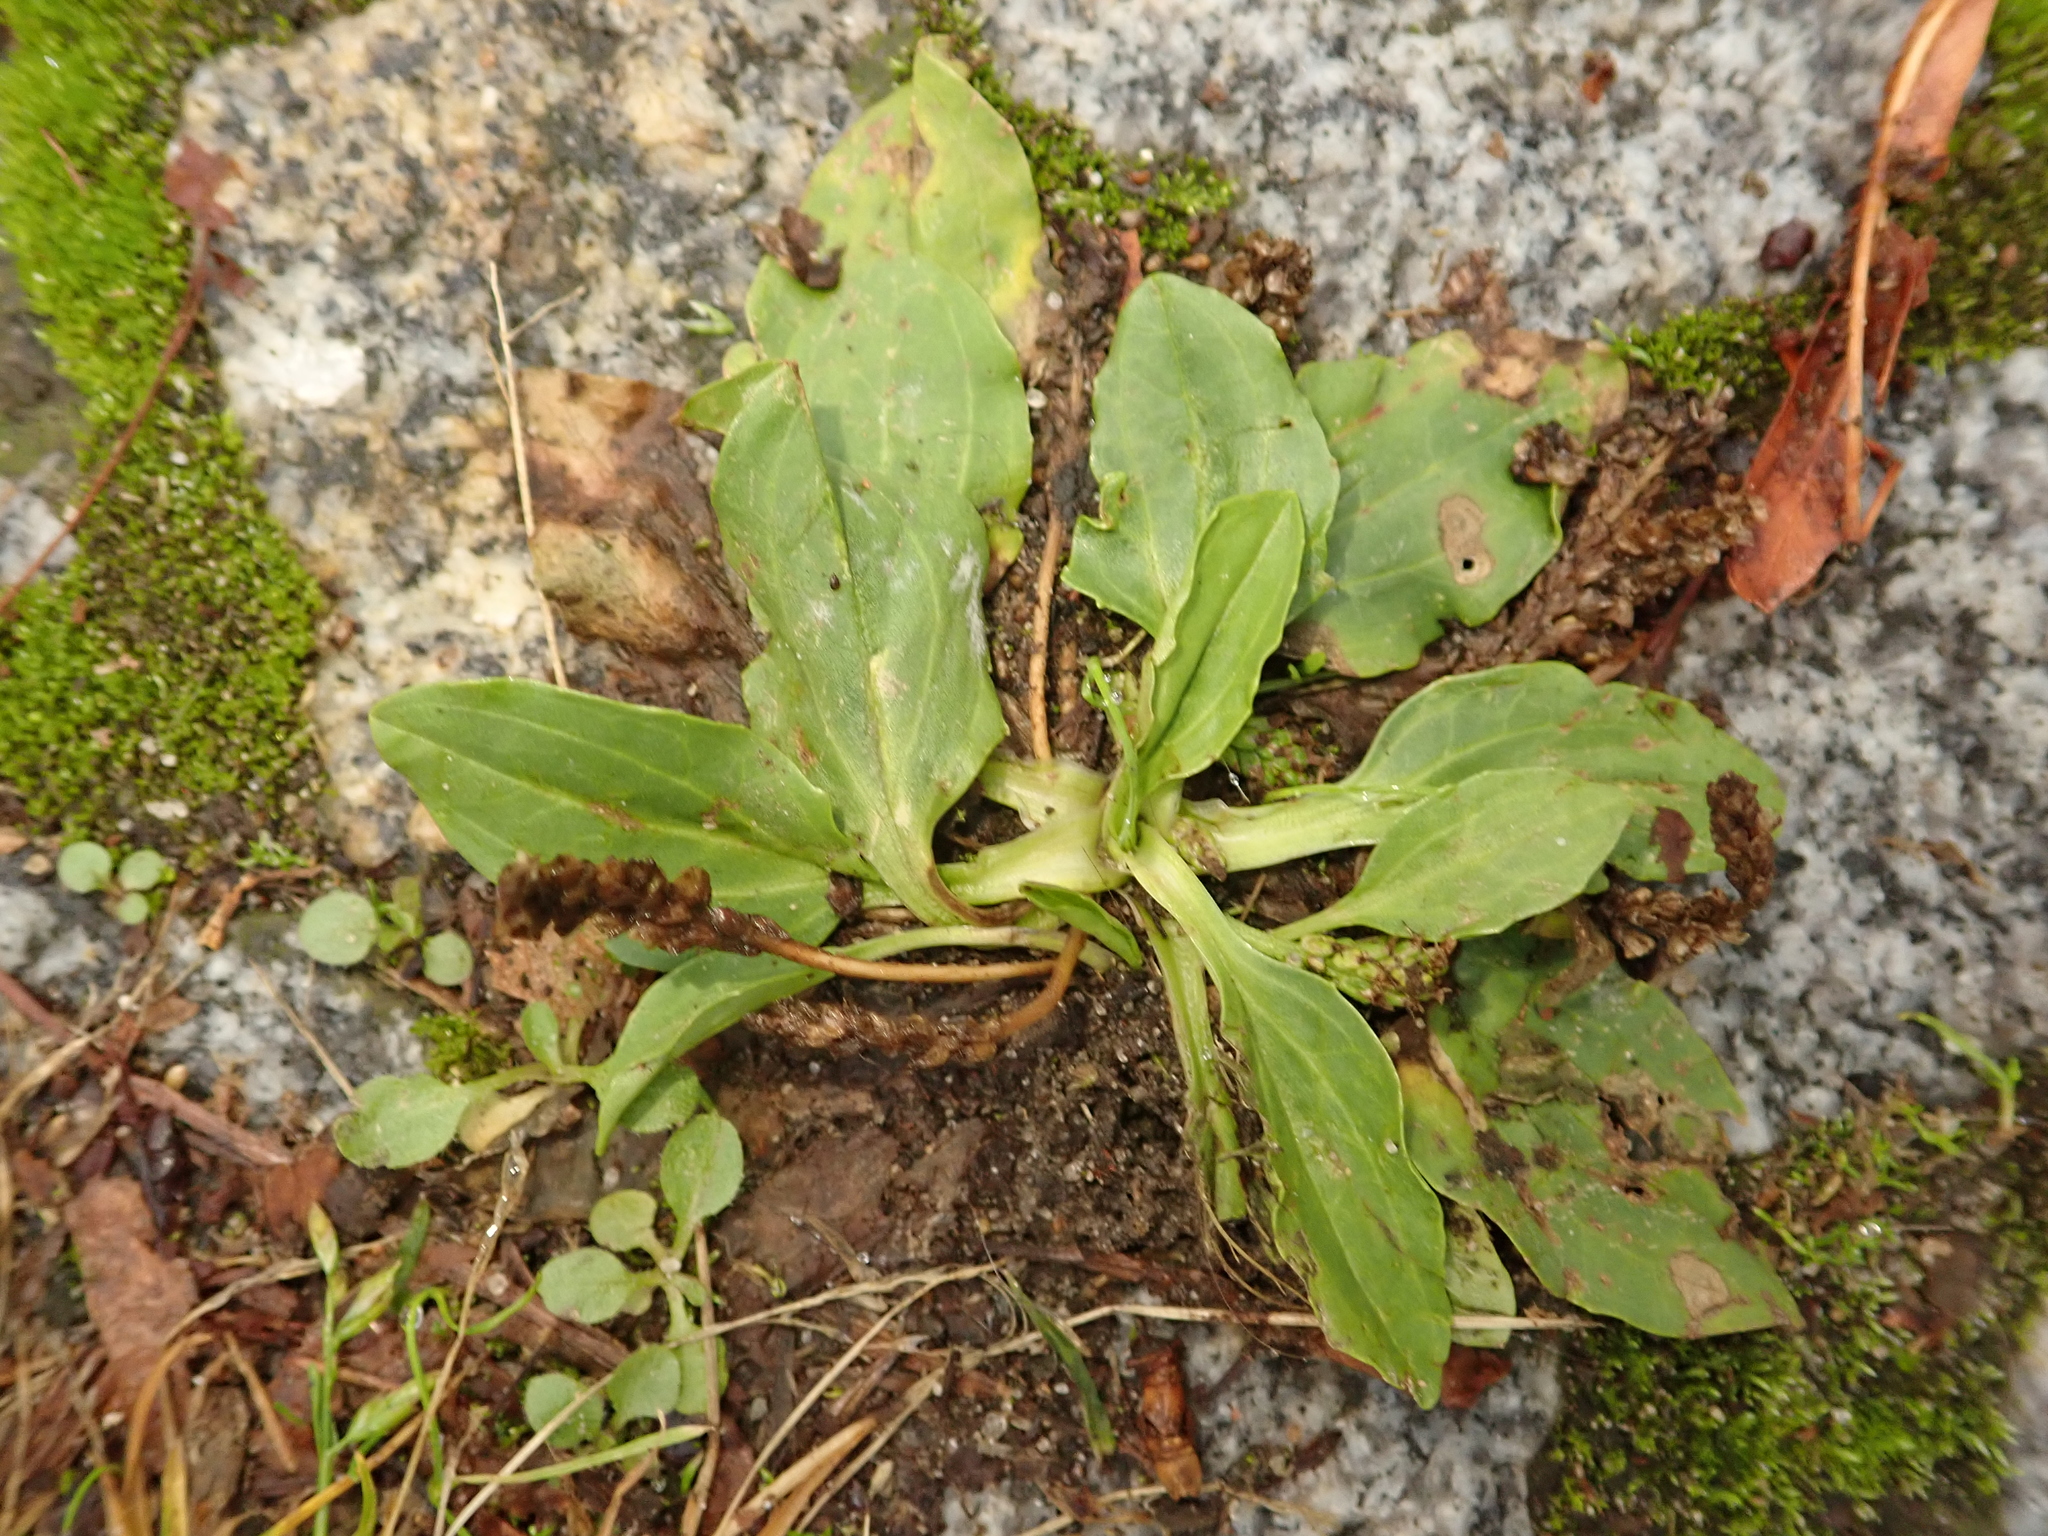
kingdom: Plantae
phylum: Tracheophyta
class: Magnoliopsida
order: Lamiales
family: Plantaginaceae
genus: Plantago
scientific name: Plantago major
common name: Common plantain
